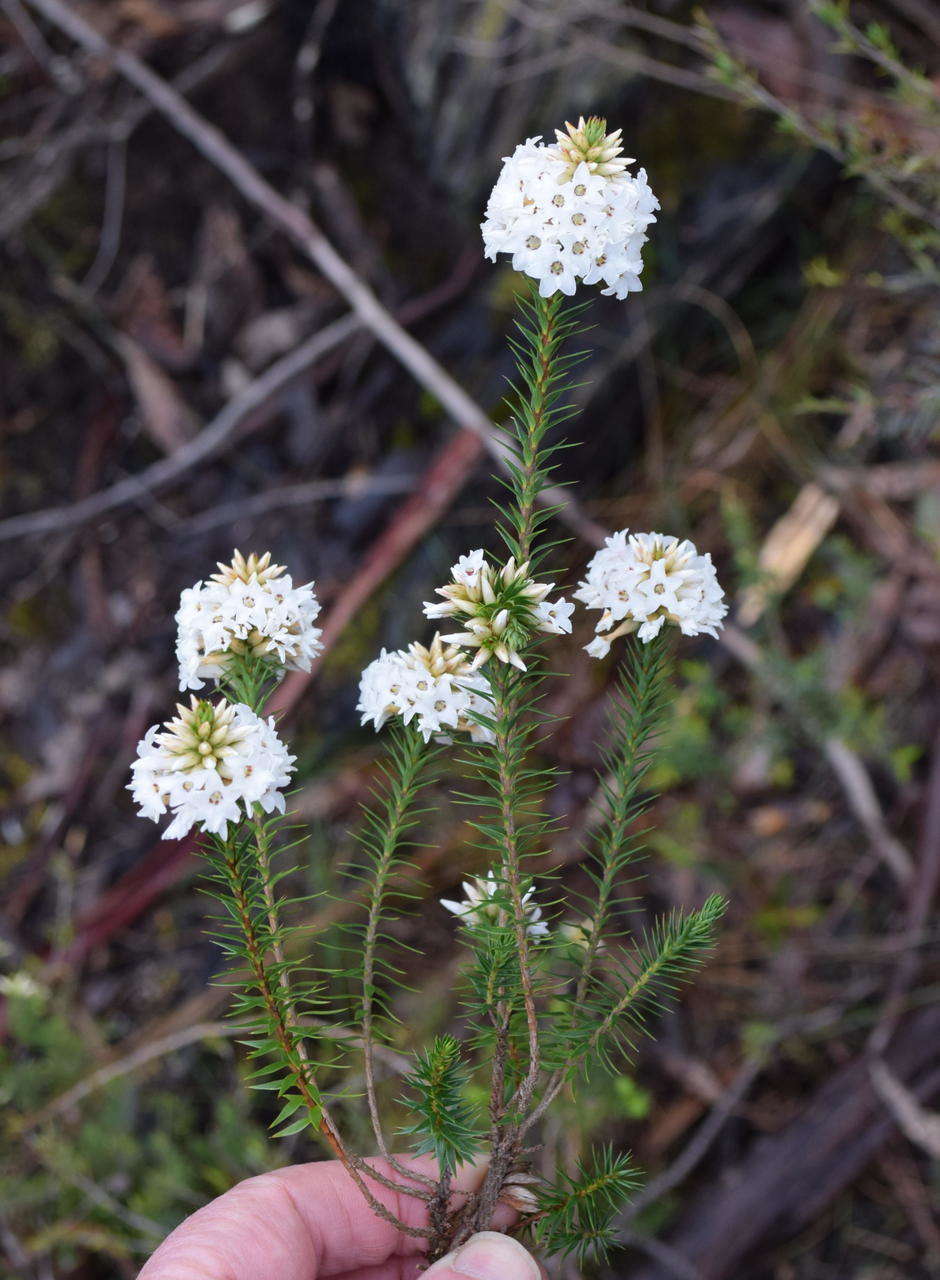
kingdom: Plantae
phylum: Tracheophyta
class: Magnoliopsida
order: Ericales
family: Ericaceae
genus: Epacris
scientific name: Epacris lanuginosa
